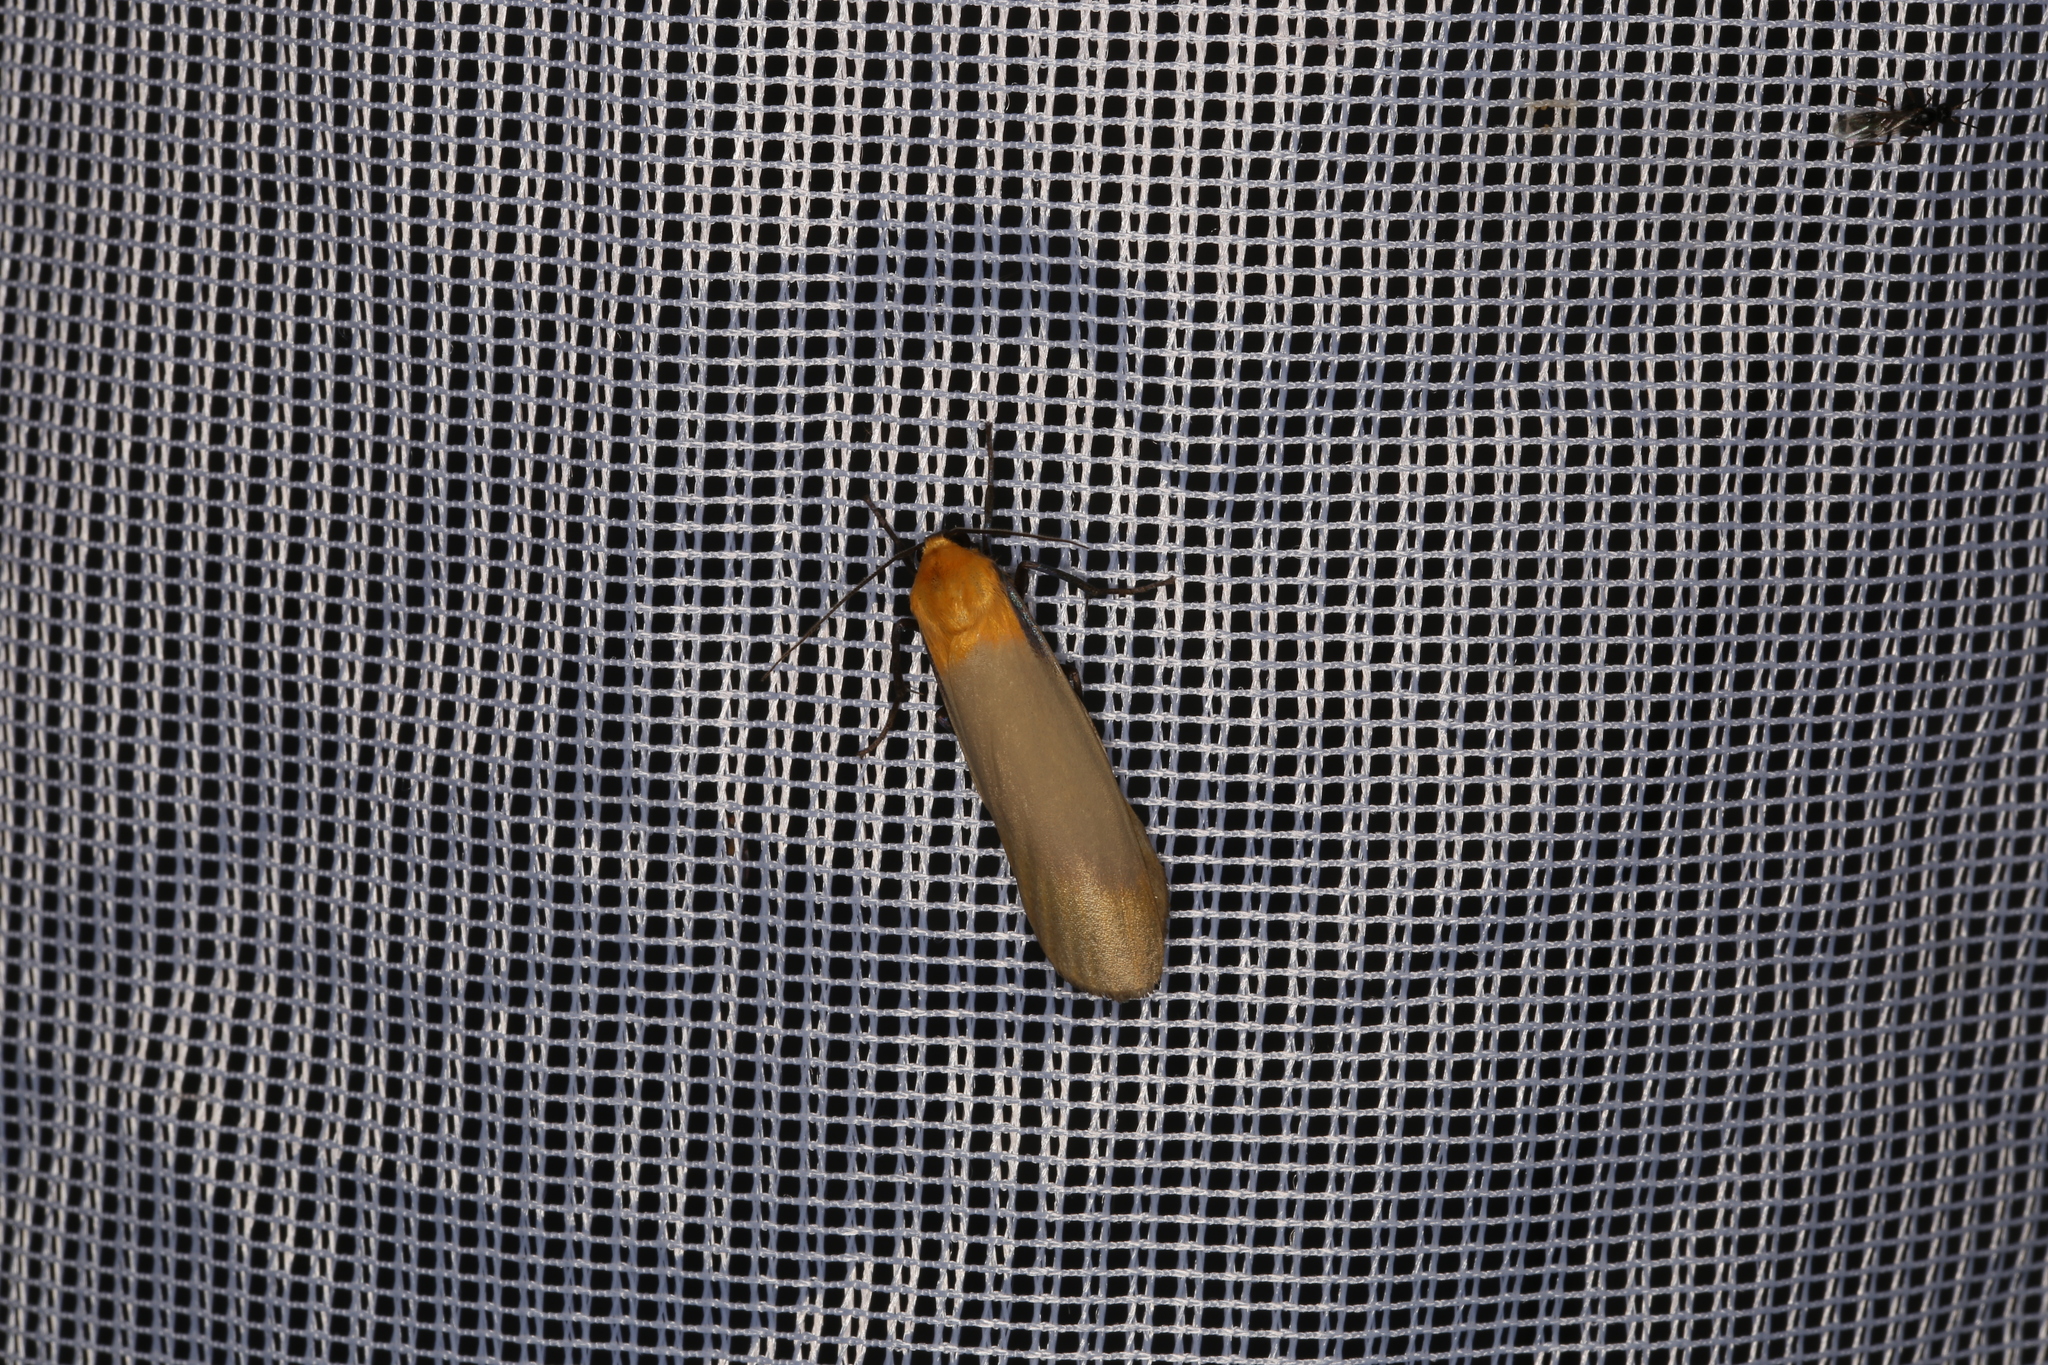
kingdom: Animalia
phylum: Arthropoda
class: Insecta
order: Lepidoptera
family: Erebidae
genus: Lithosia
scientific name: Lithosia quadra
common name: Four-spotted footman
